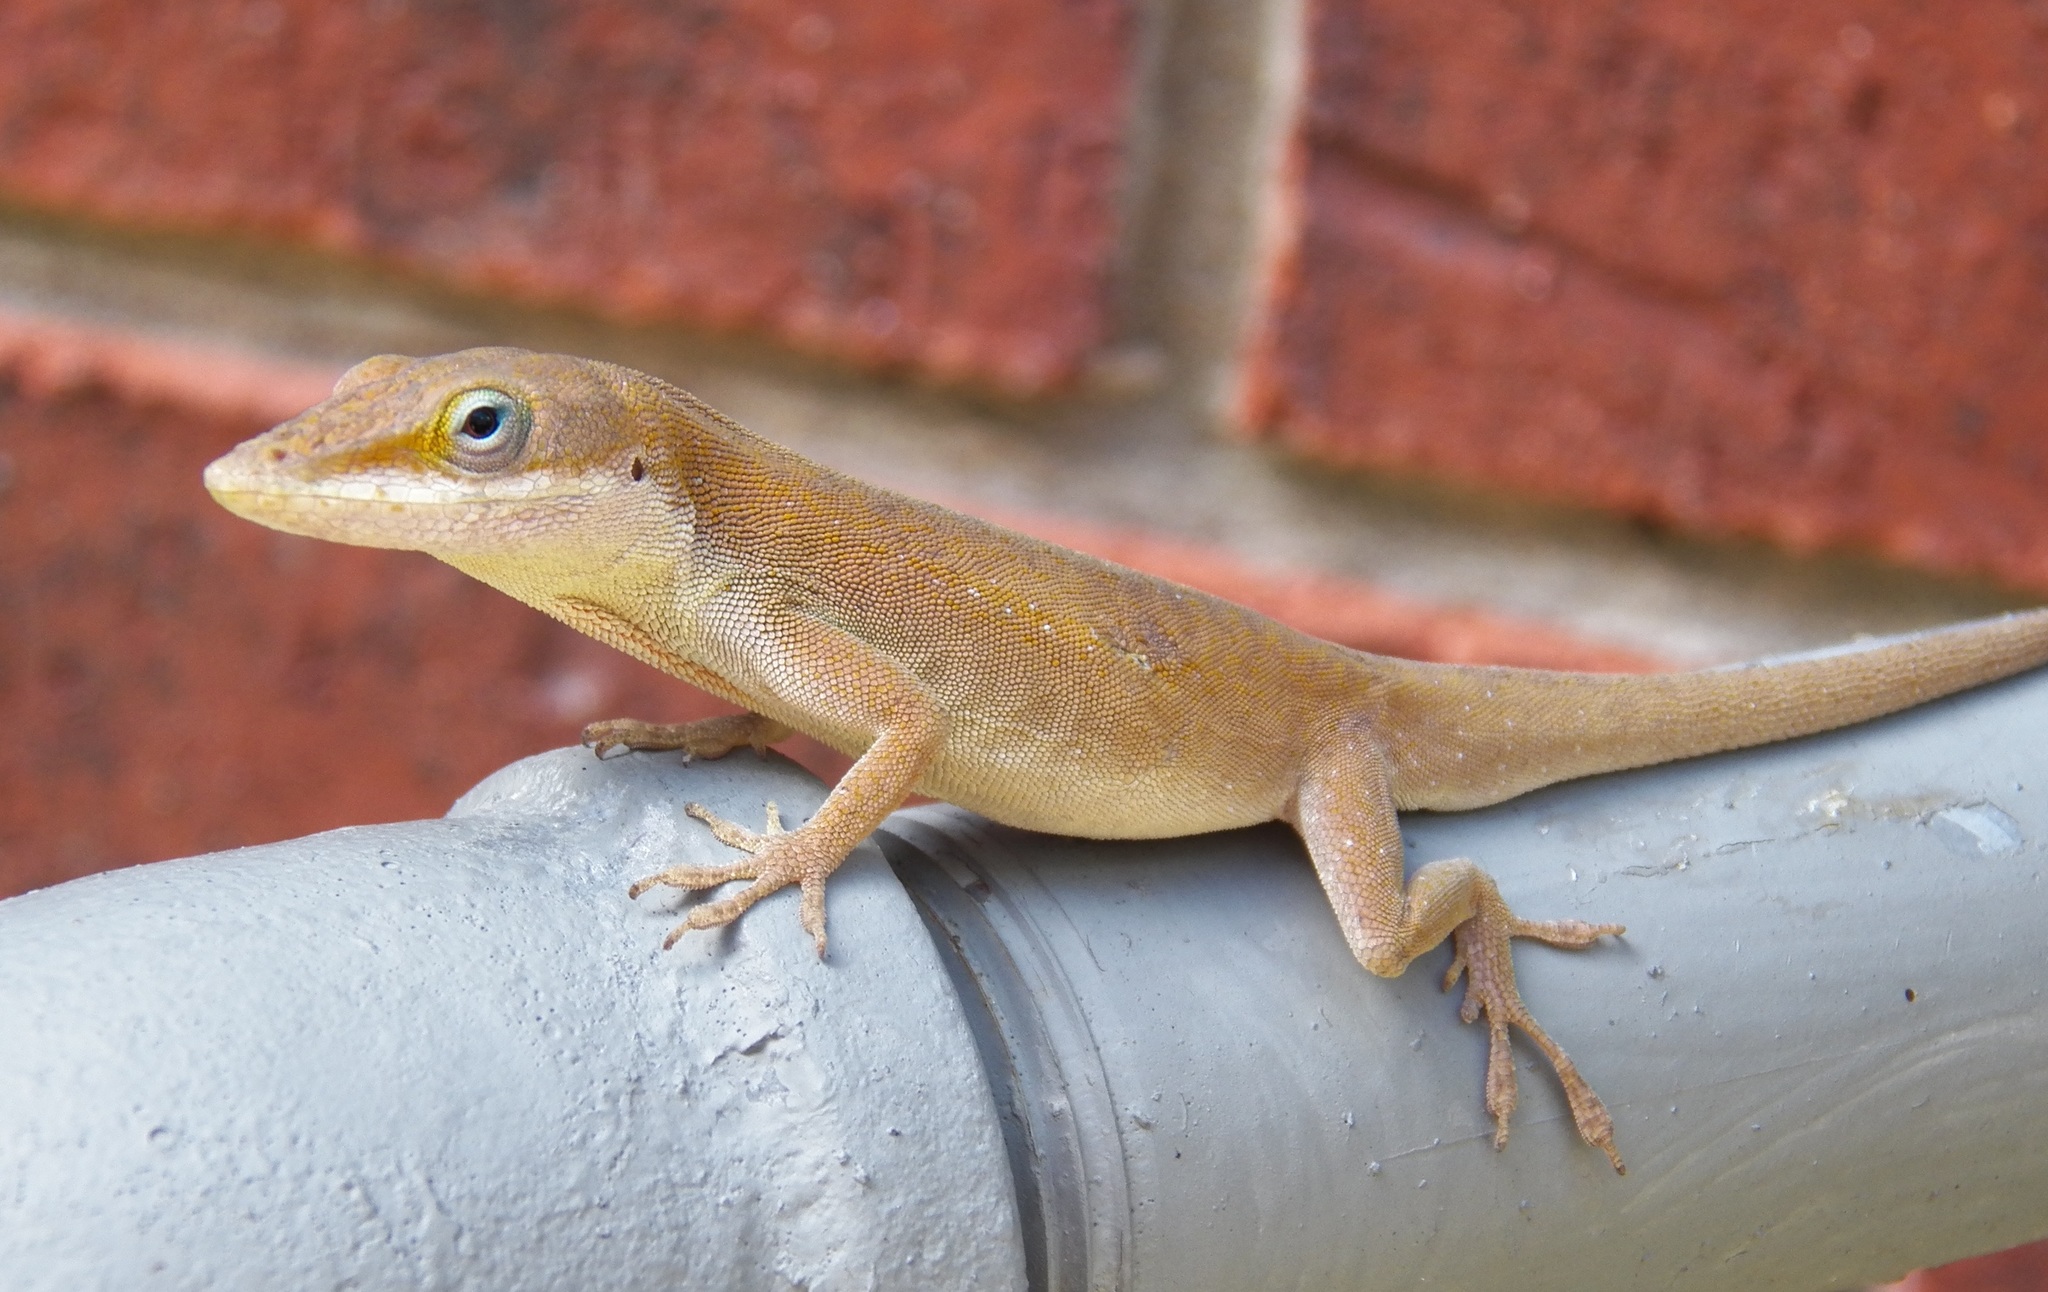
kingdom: Animalia
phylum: Chordata
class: Squamata
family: Dactyloidae
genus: Anolis
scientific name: Anolis carolinensis
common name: Green anole
